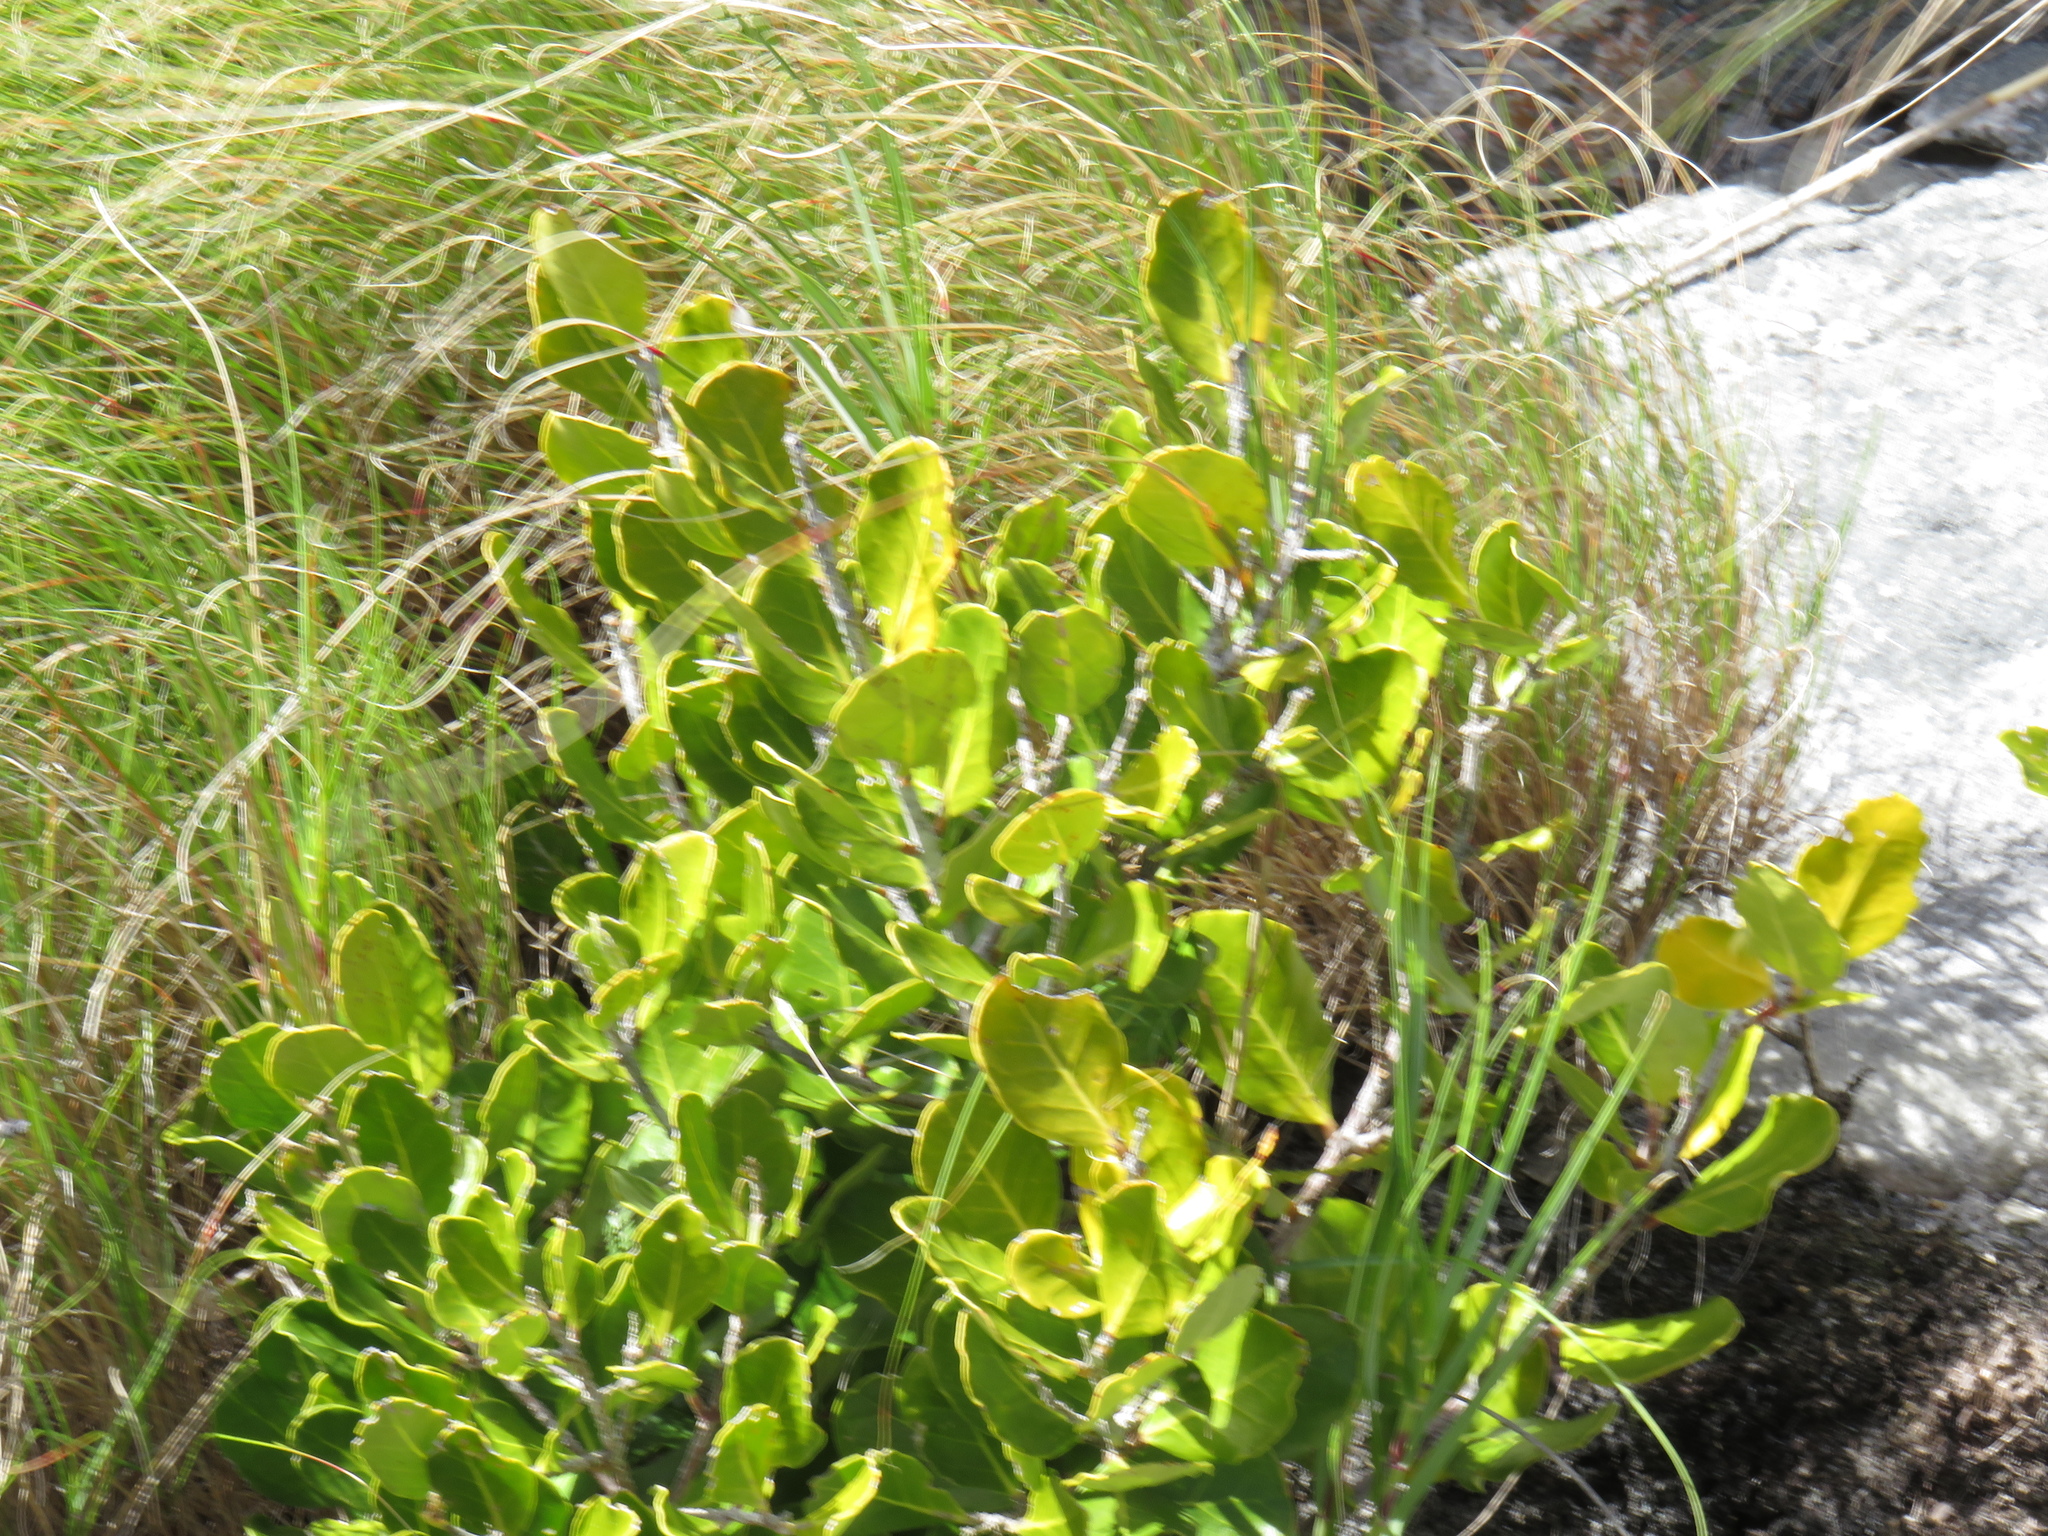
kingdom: Plantae
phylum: Tracheophyta
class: Magnoliopsida
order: Lamiales
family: Oleaceae
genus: Olea
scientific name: Olea capensis
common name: Black ironwood
